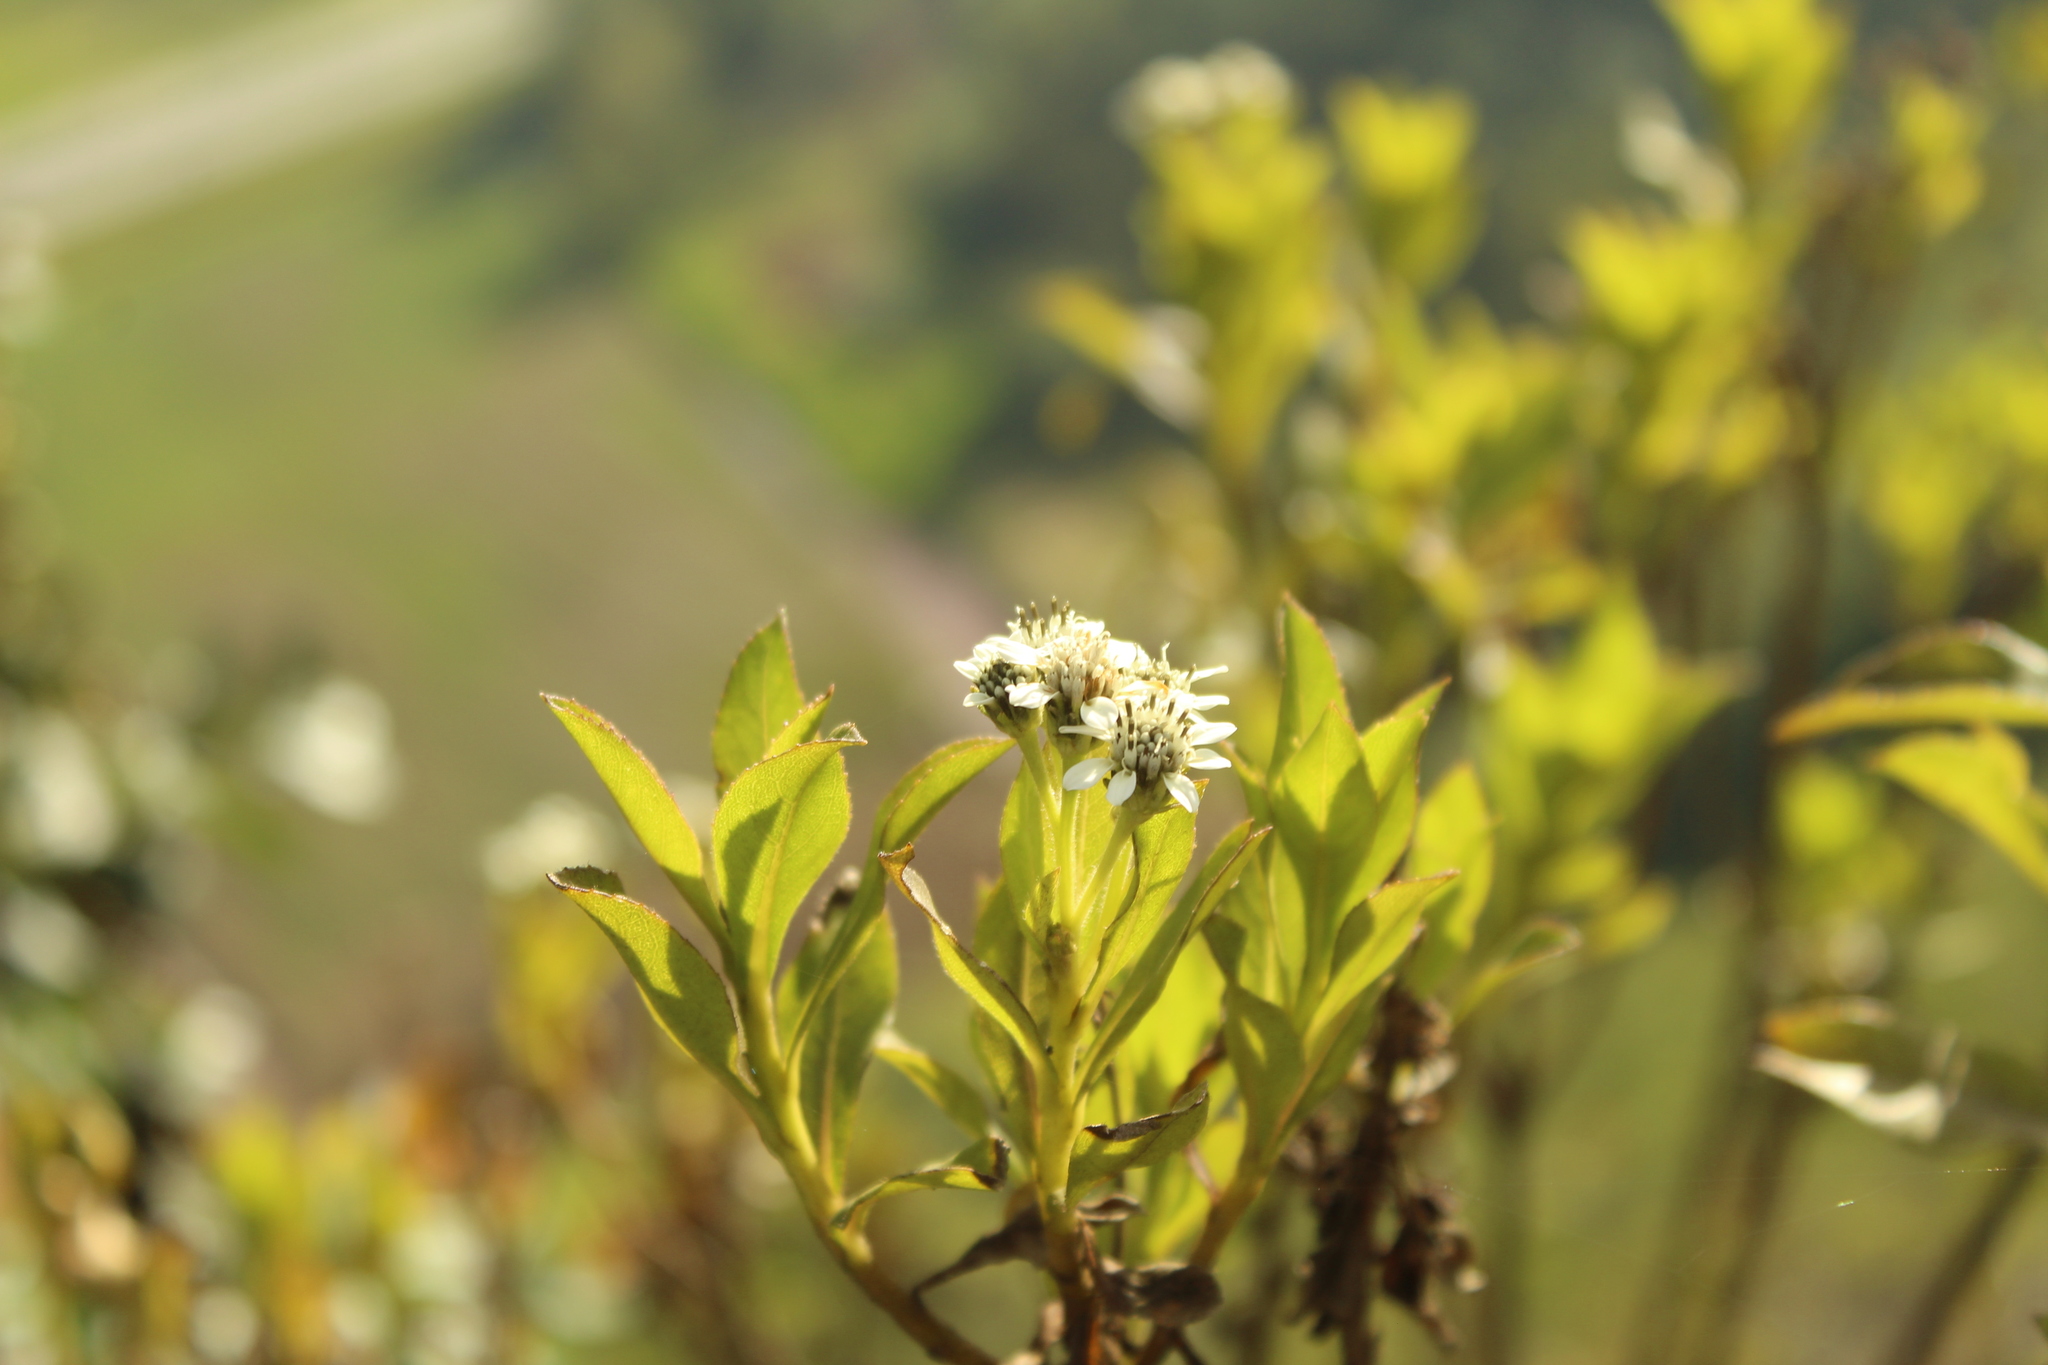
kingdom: Plantae
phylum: Tracheophyta
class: Magnoliopsida
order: Asterales
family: Asteraceae
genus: Verbesina
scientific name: Verbesina centroboyacana
